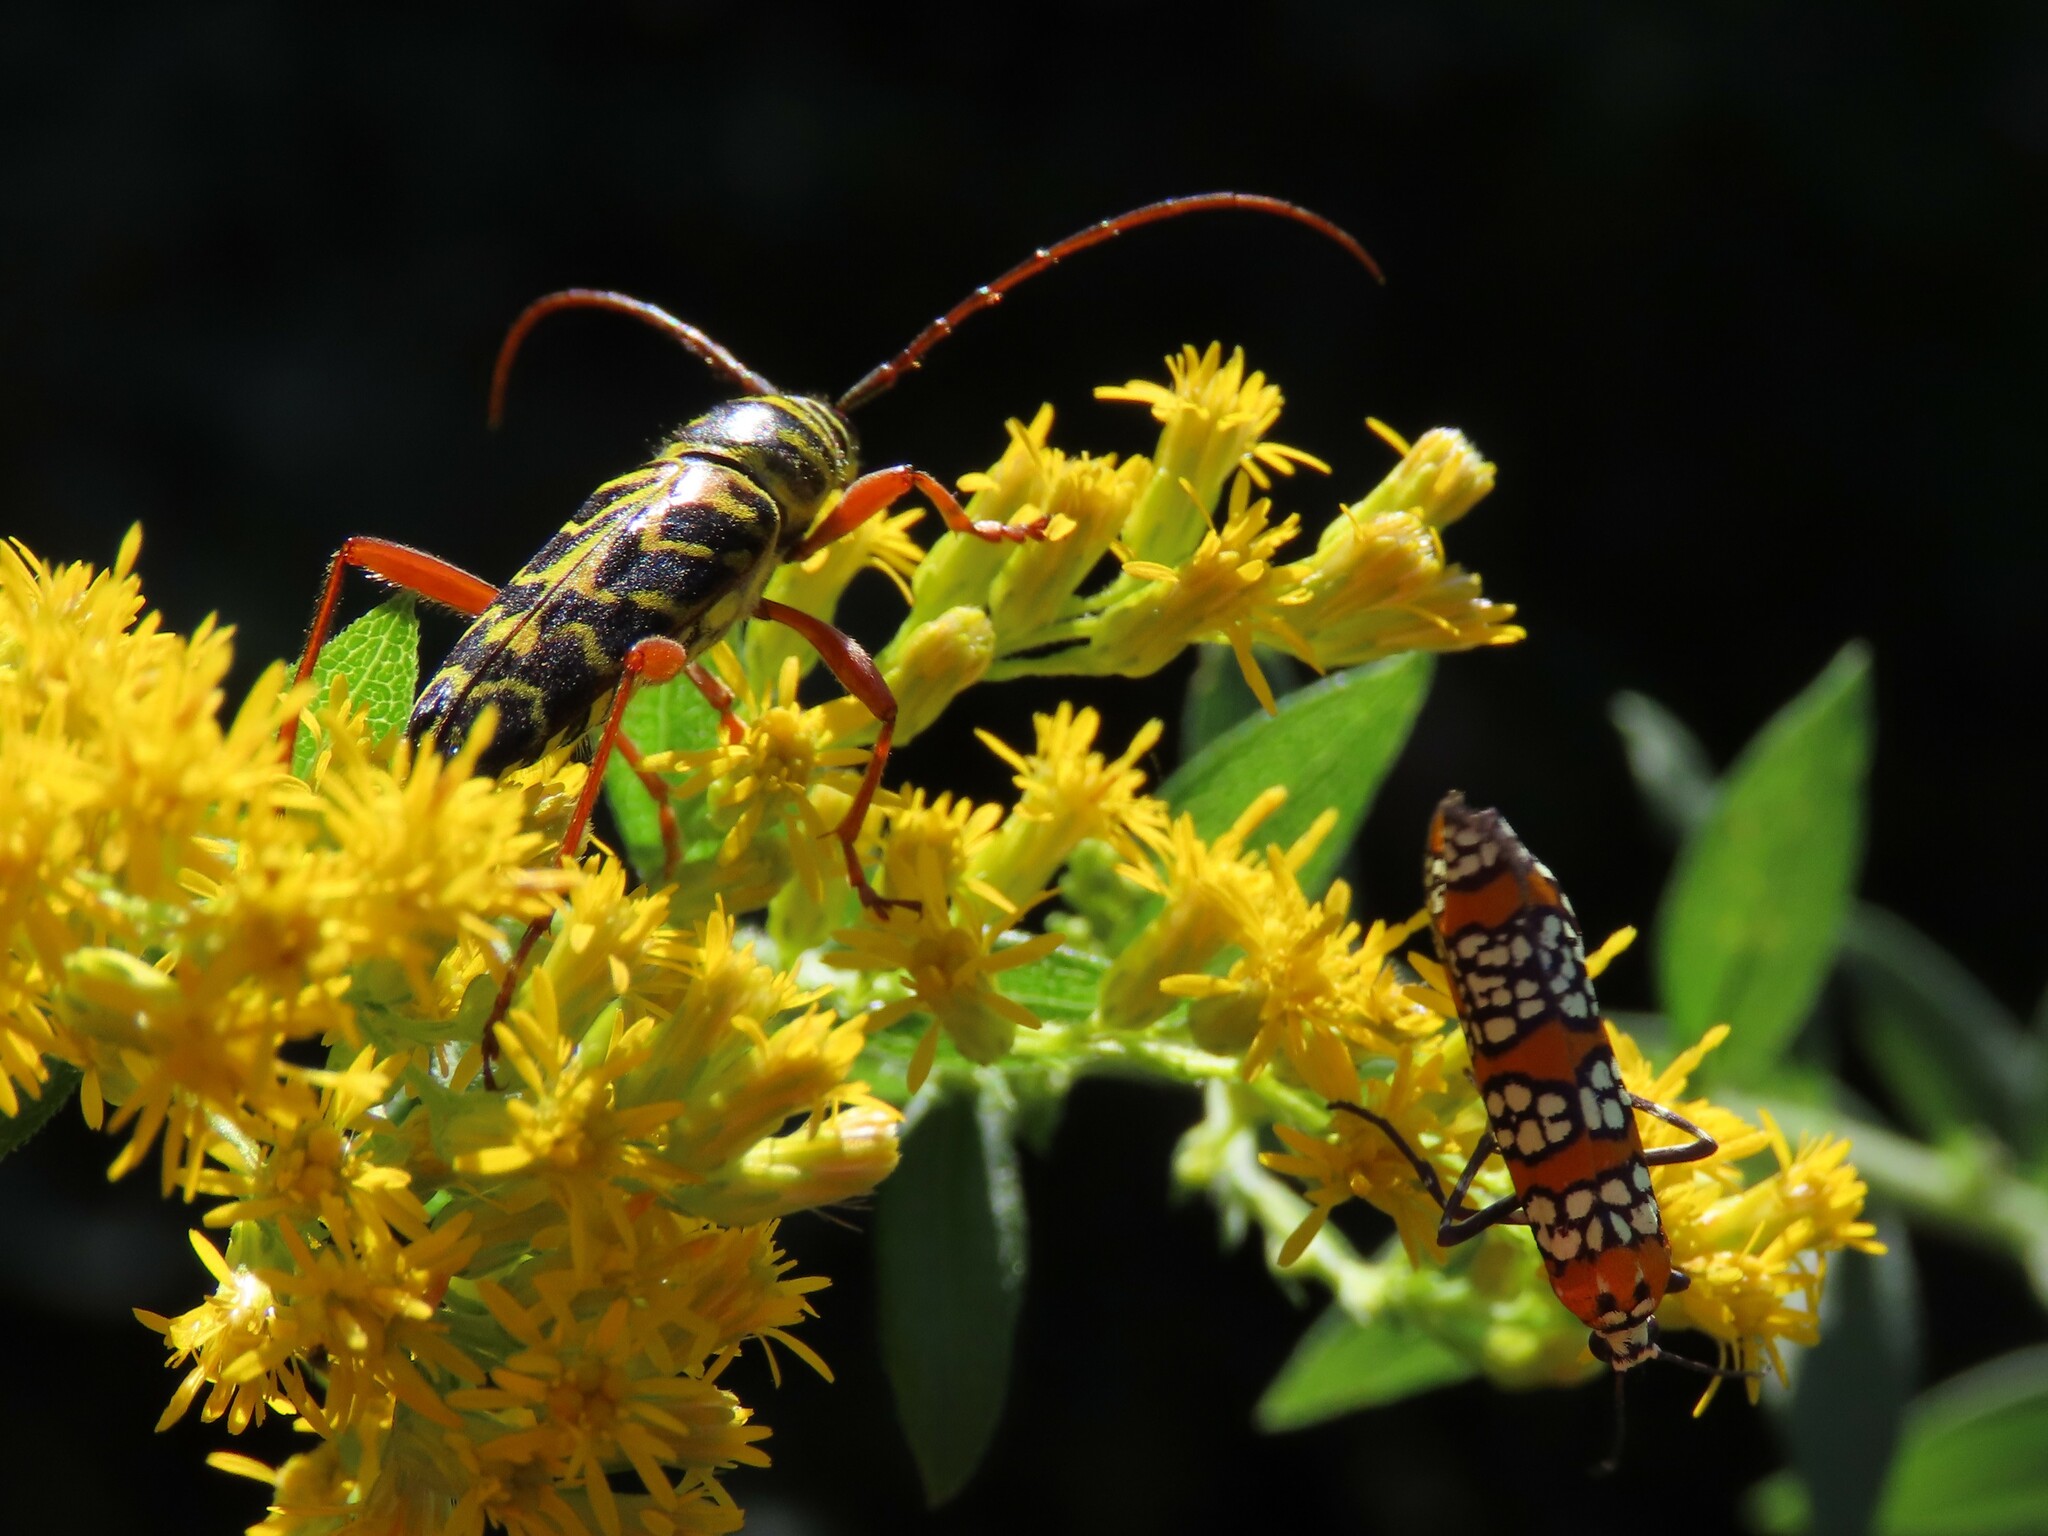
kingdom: Animalia
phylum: Arthropoda
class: Insecta
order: Coleoptera
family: Cerambycidae
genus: Megacyllene
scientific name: Megacyllene robiniae
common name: Locust borer
